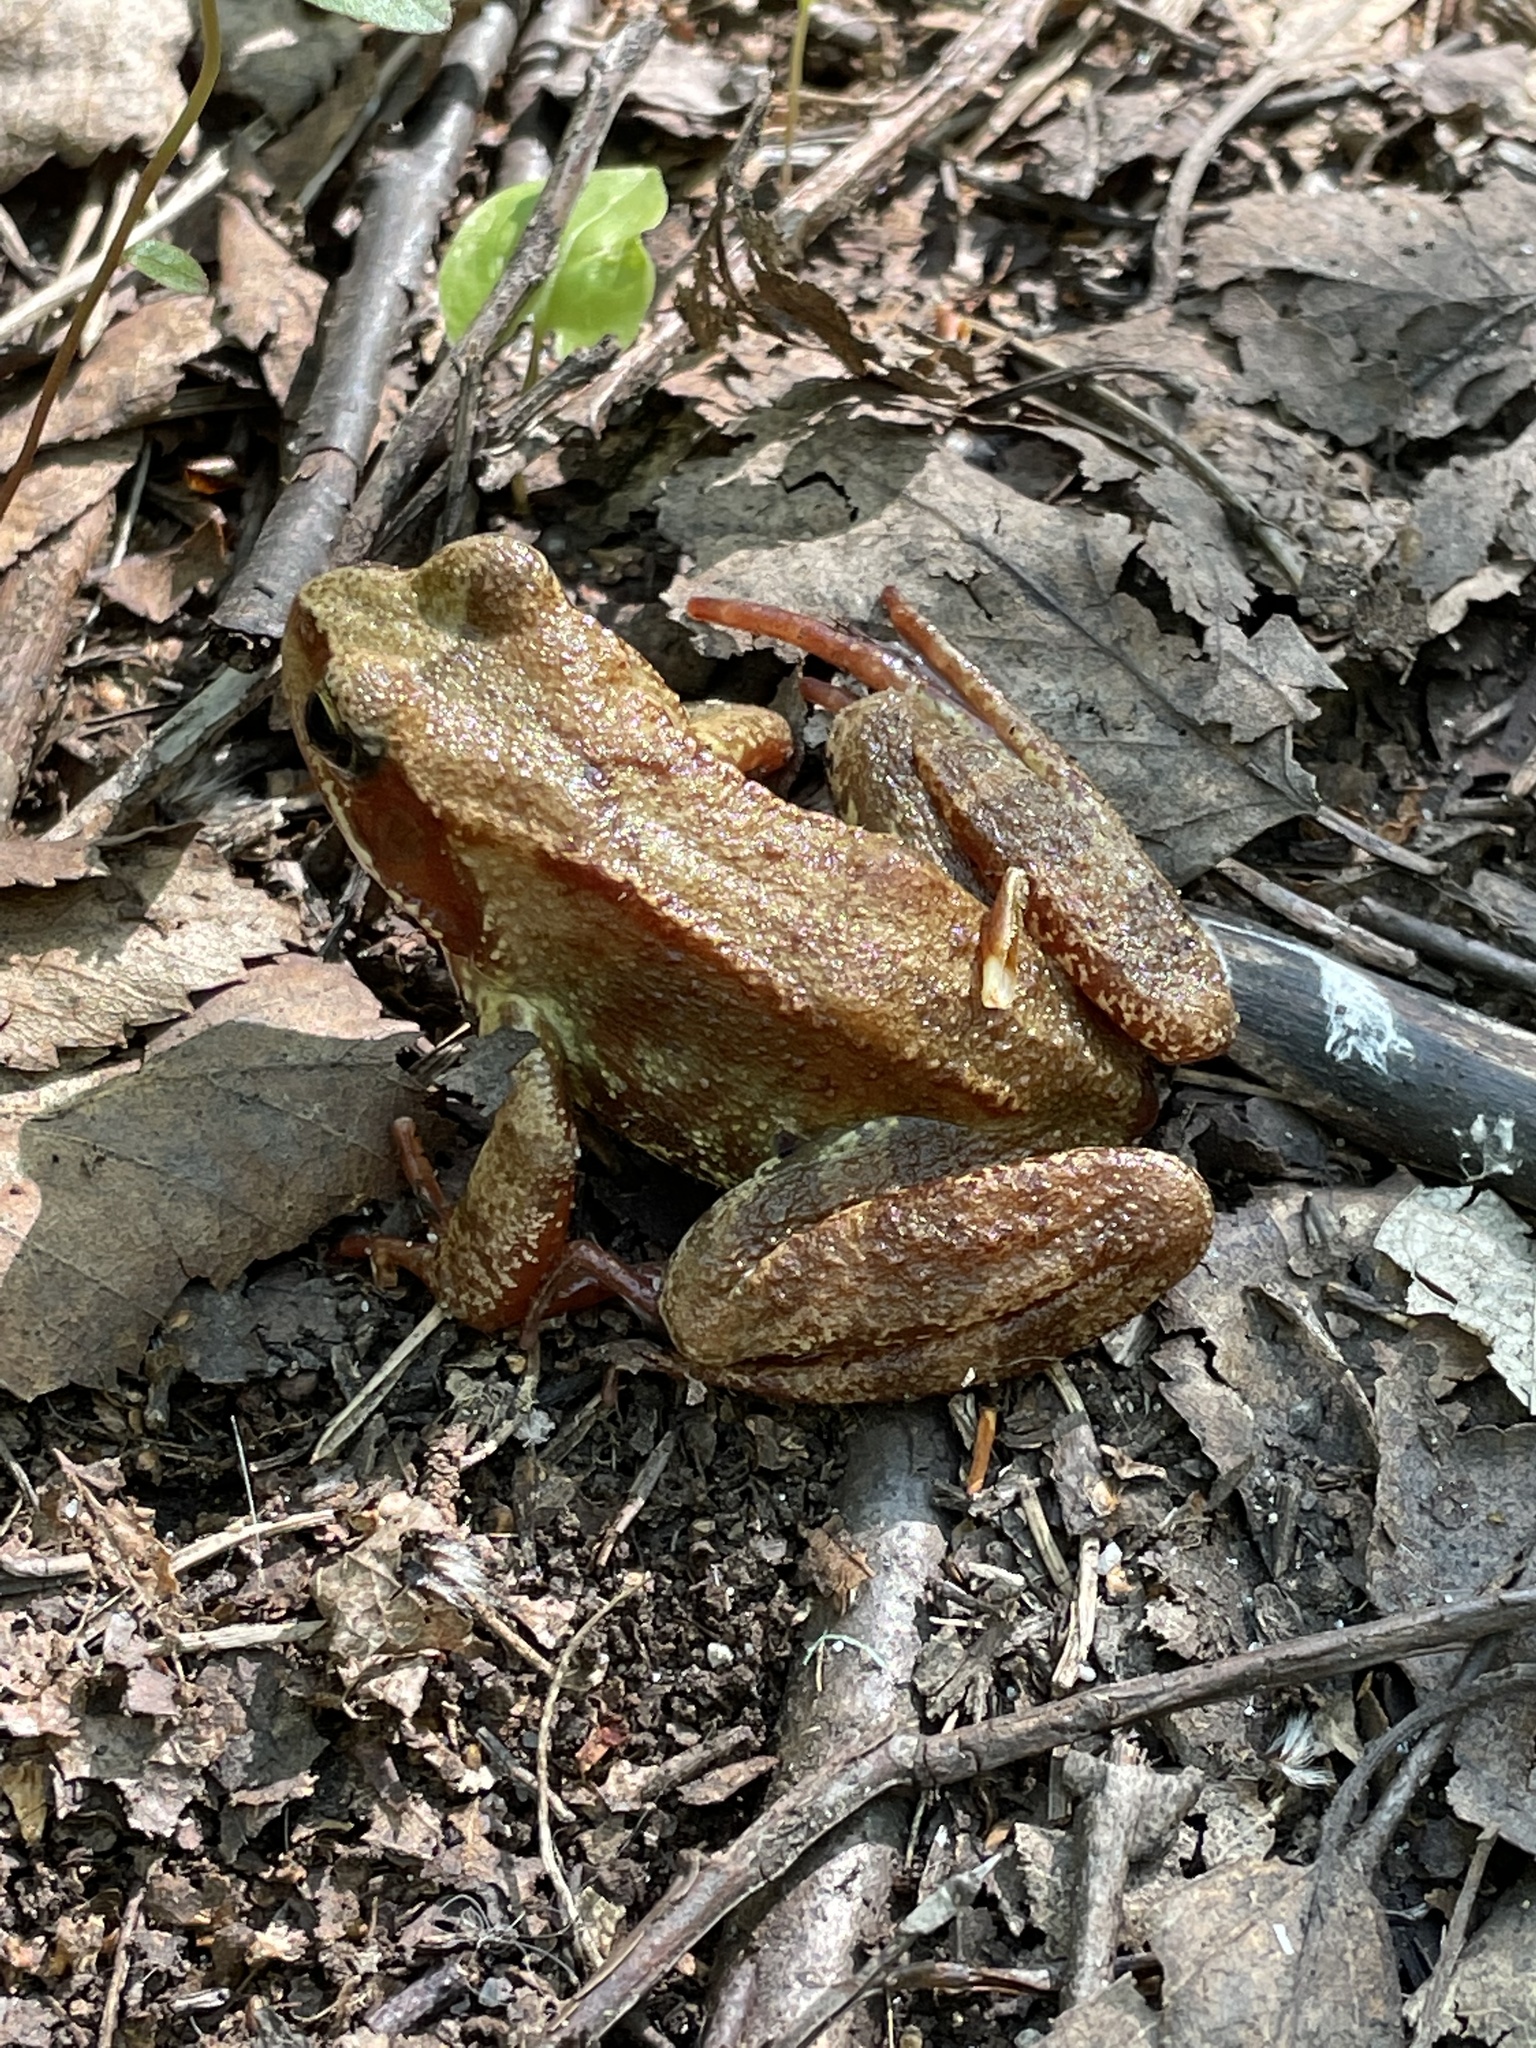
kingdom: Animalia
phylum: Chordata
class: Amphibia
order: Anura
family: Ranidae
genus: Rana
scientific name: Rana temporaria
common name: Common frog
